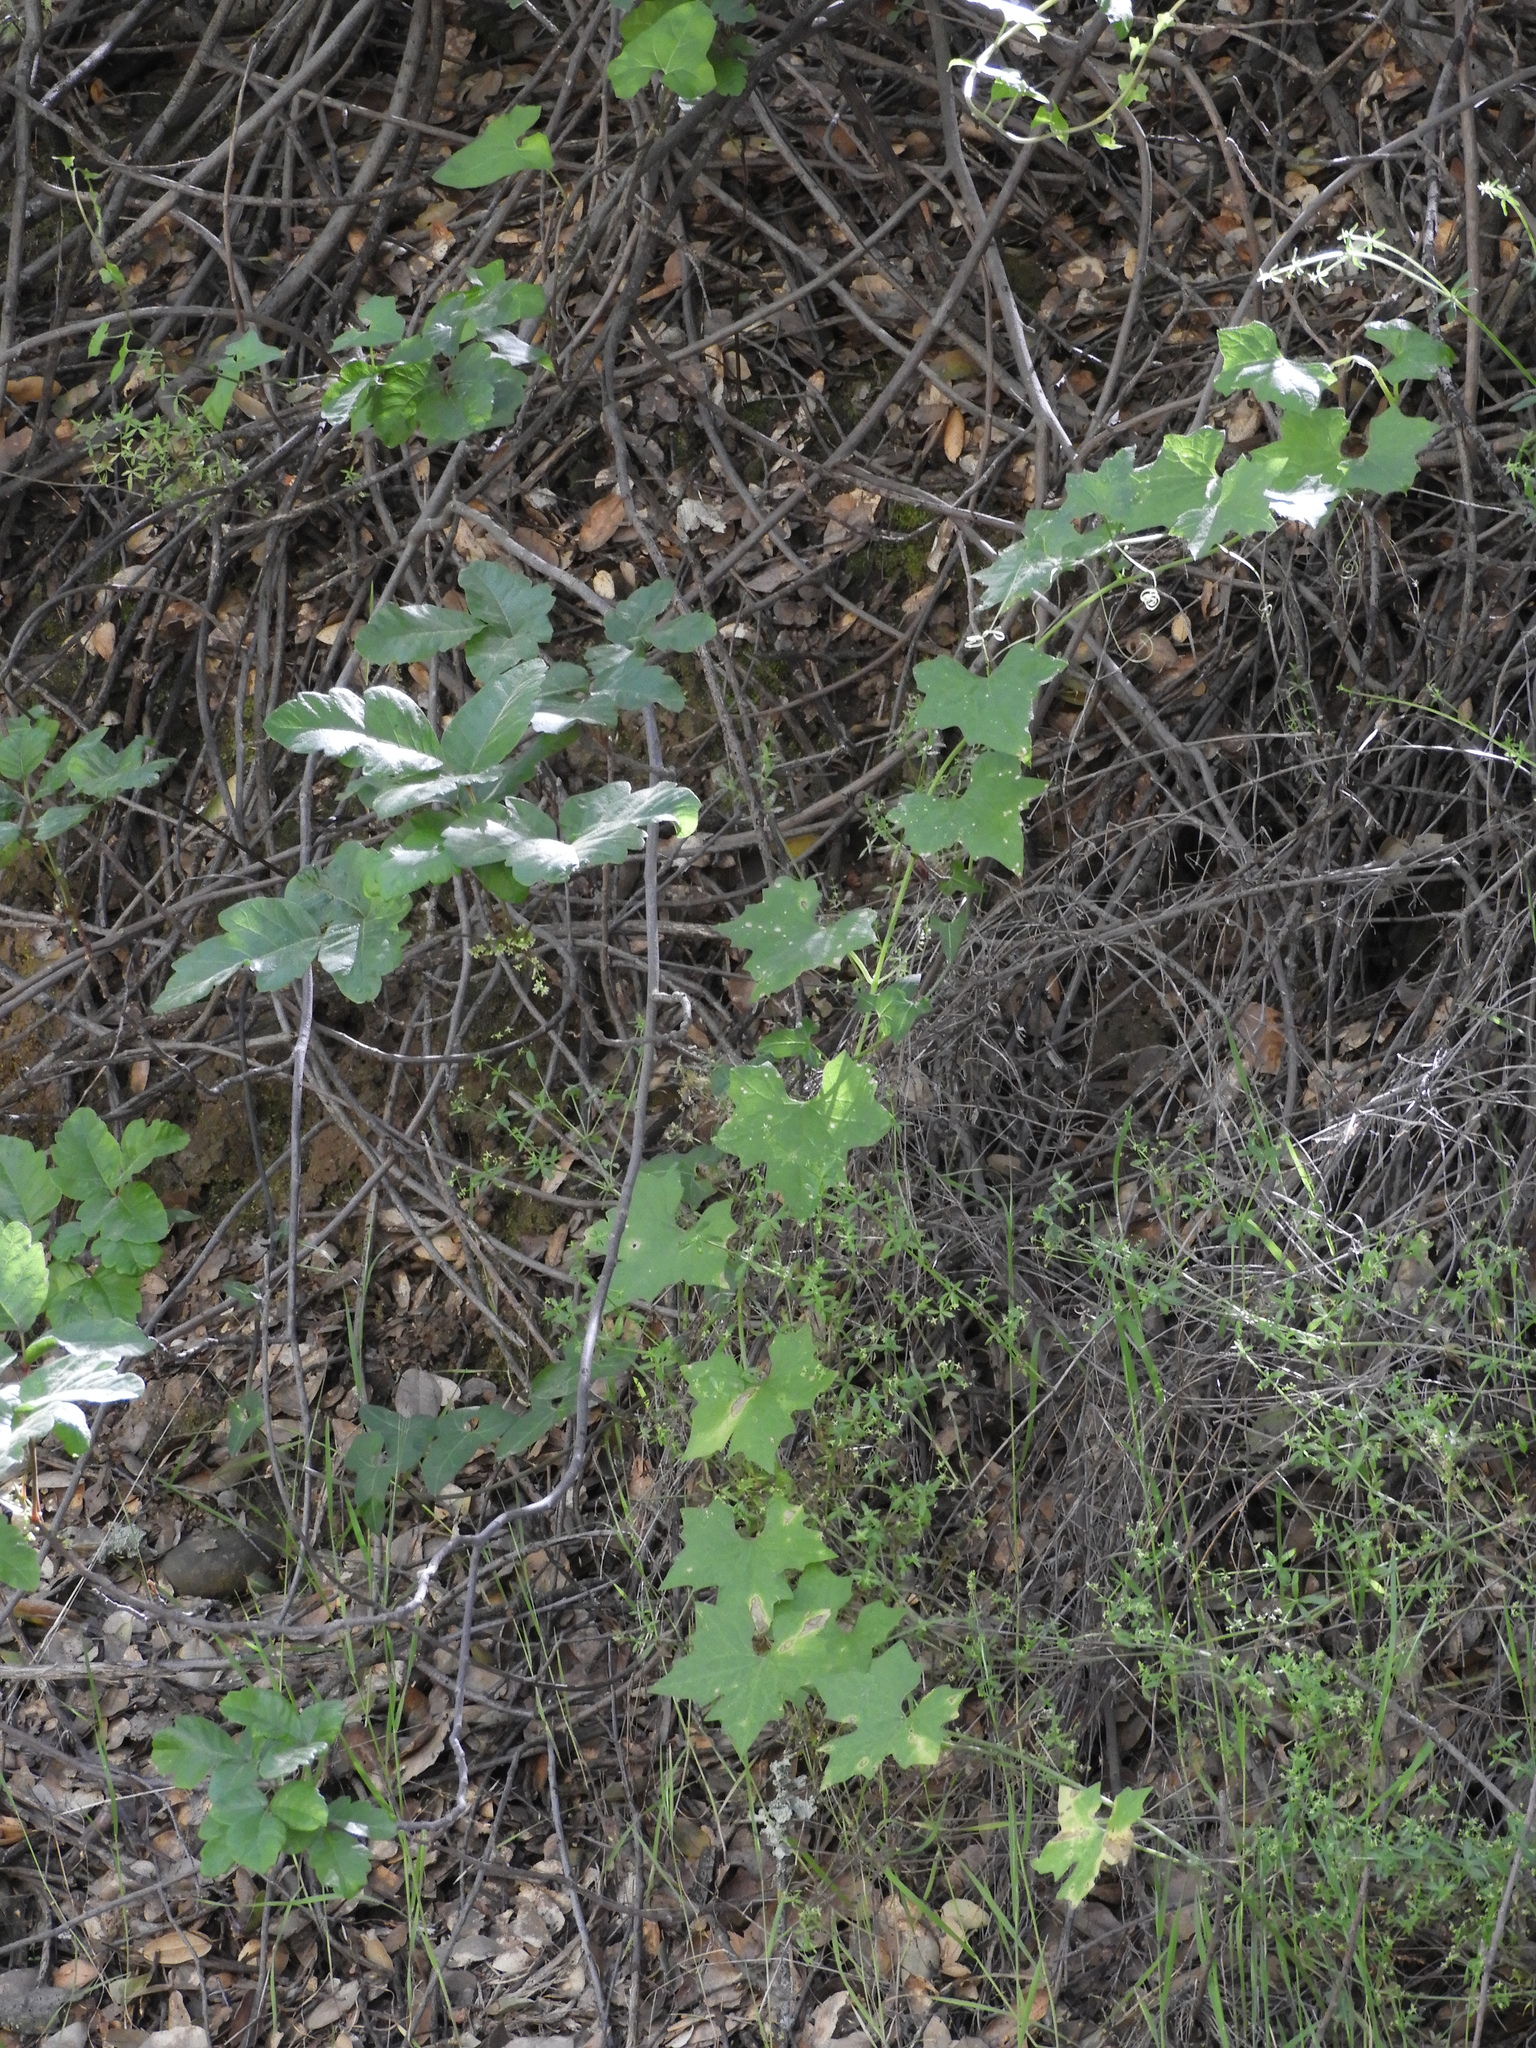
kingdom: Plantae
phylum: Tracheophyta
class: Magnoliopsida
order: Cucurbitales
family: Cucurbitaceae
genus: Marah
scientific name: Marah fabacea
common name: California manroot
